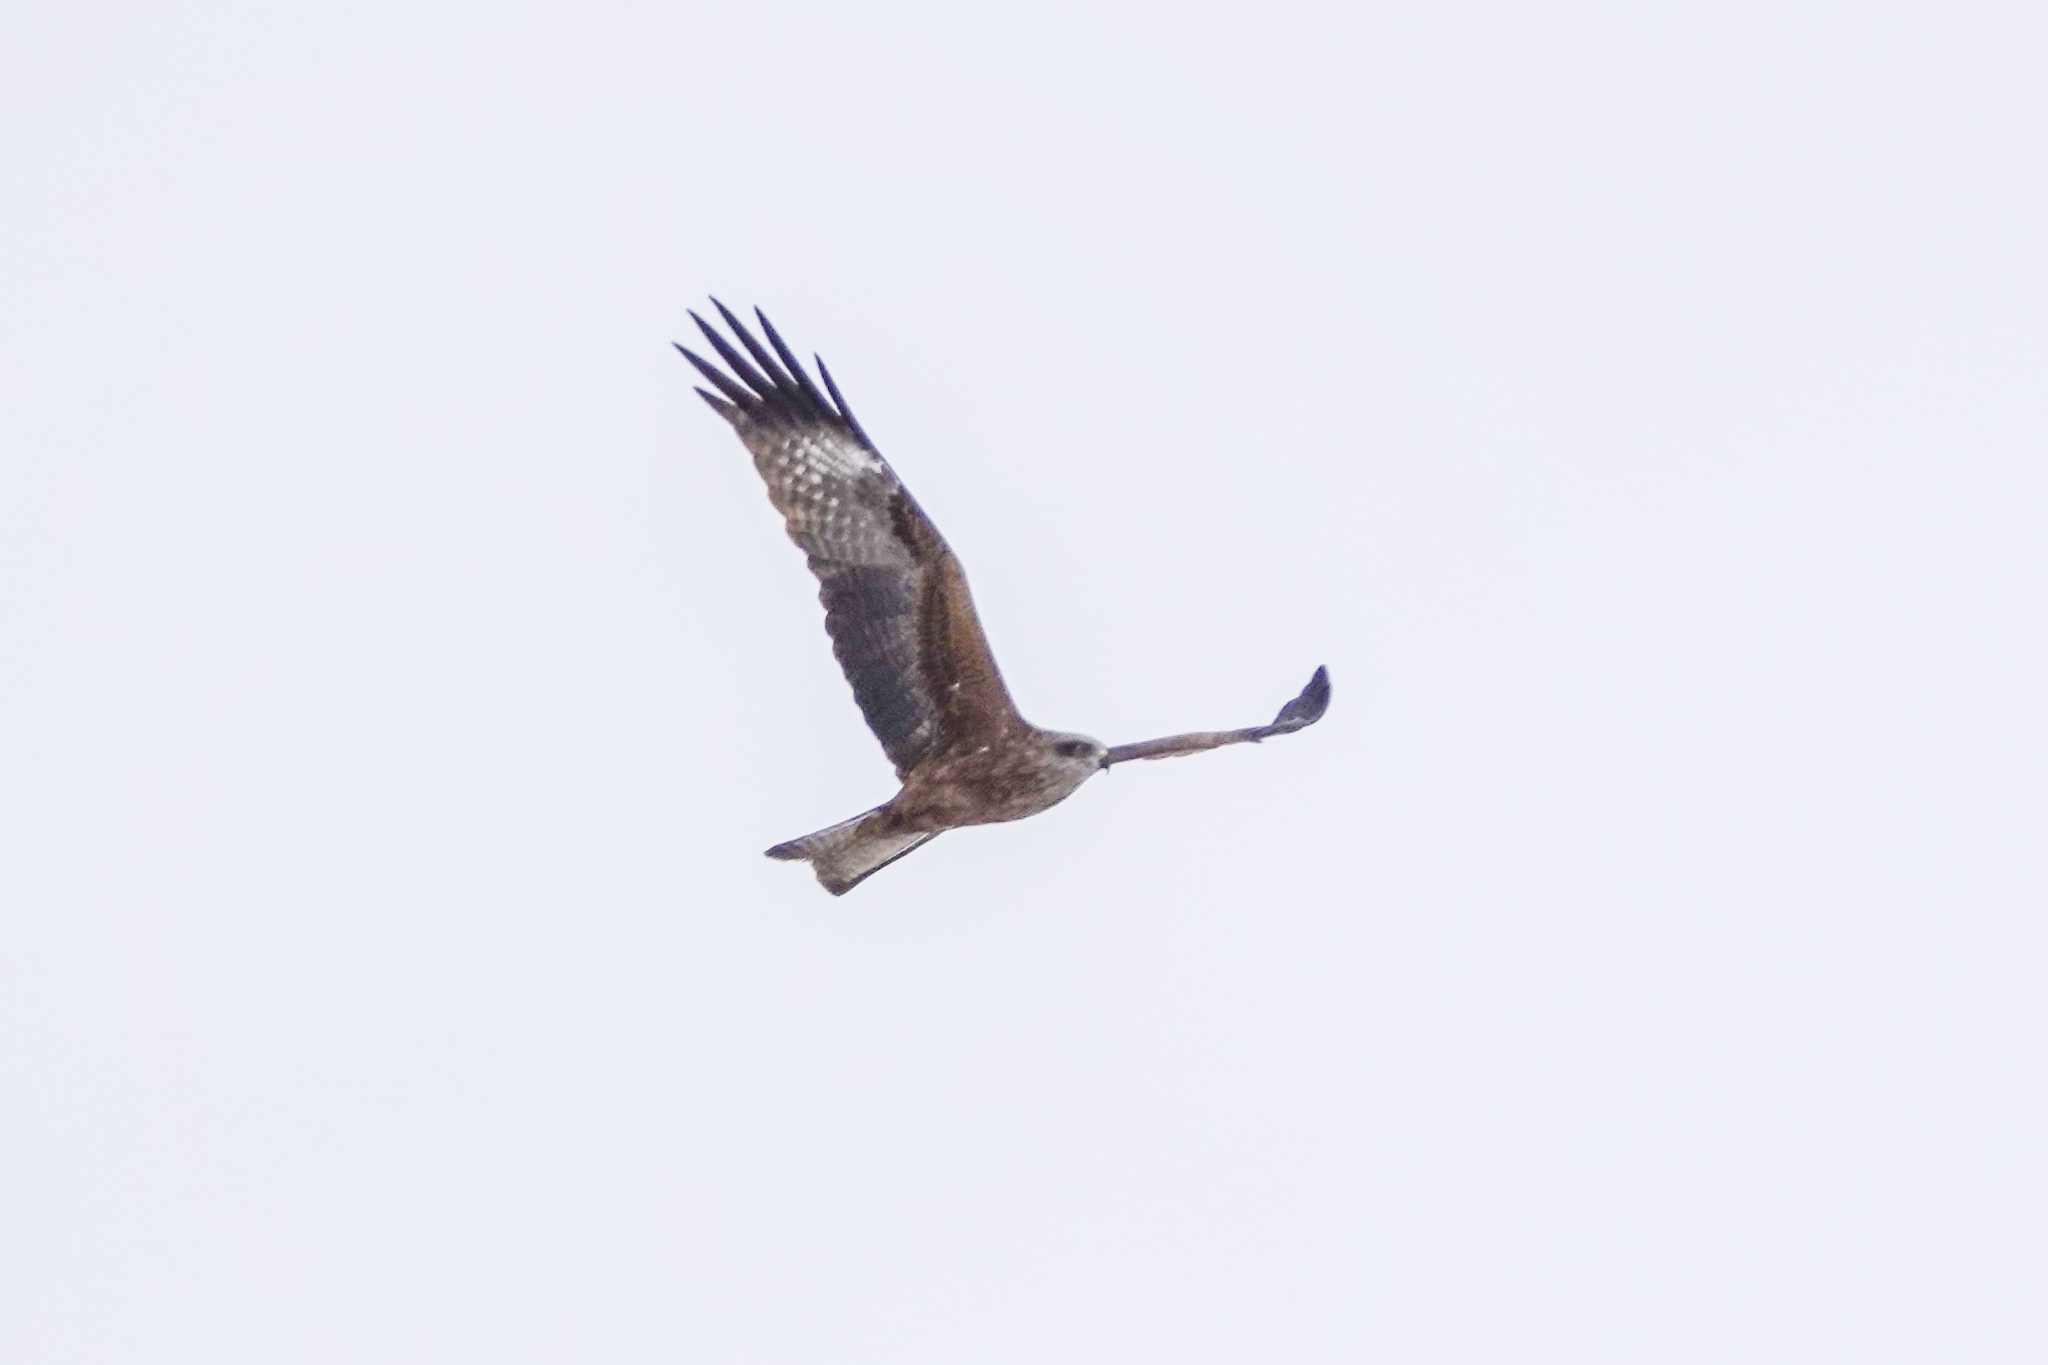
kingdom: Animalia
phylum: Chordata
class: Aves
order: Accipitriformes
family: Accipitridae
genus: Milvus
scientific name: Milvus migrans
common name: Black kite
